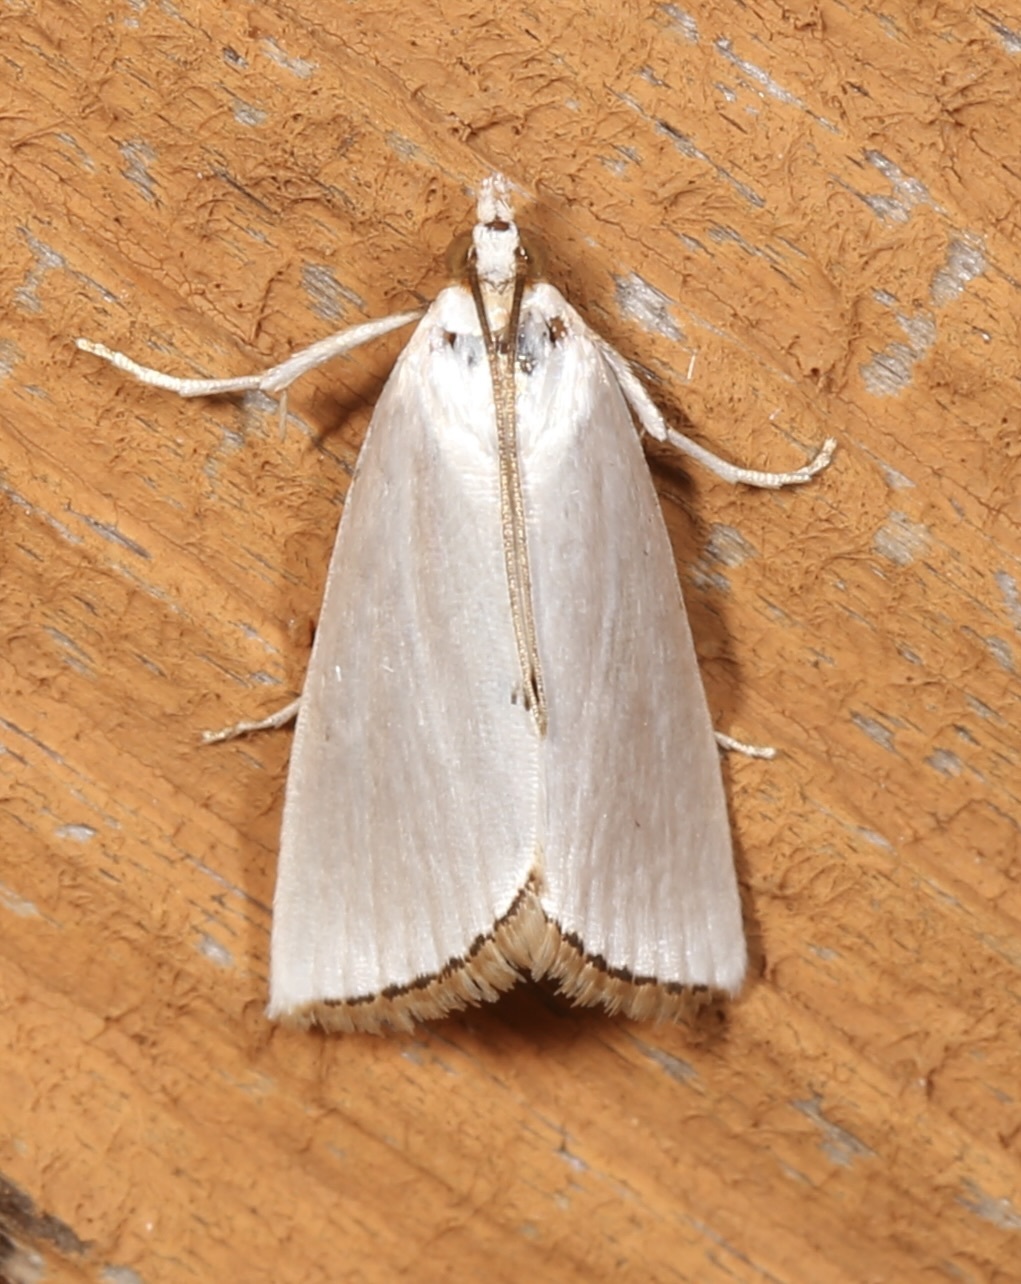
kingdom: Animalia
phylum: Arthropoda
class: Insecta
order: Lepidoptera
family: Crambidae
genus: Argyria
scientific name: Argyria nivalis
